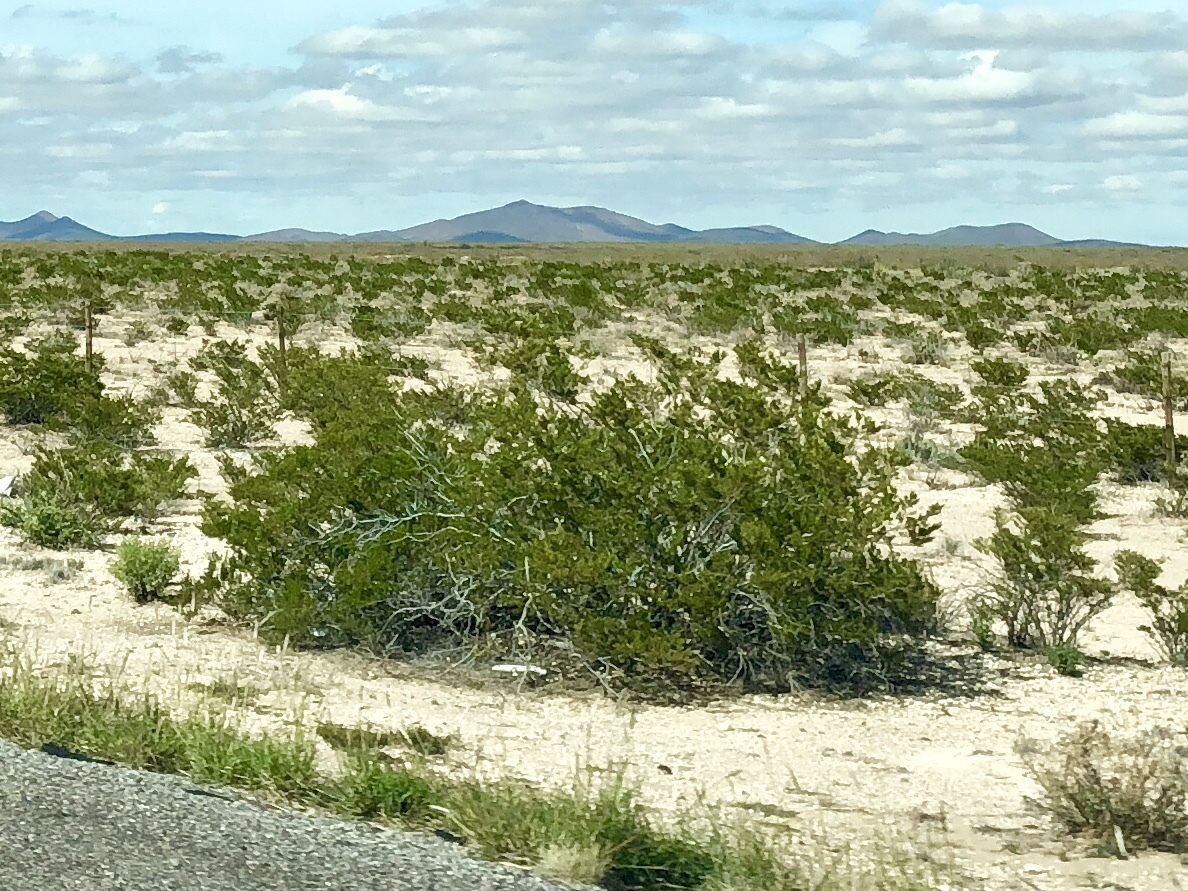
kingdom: Plantae
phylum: Tracheophyta
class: Magnoliopsida
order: Zygophyllales
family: Zygophyllaceae
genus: Larrea
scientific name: Larrea tridentata
